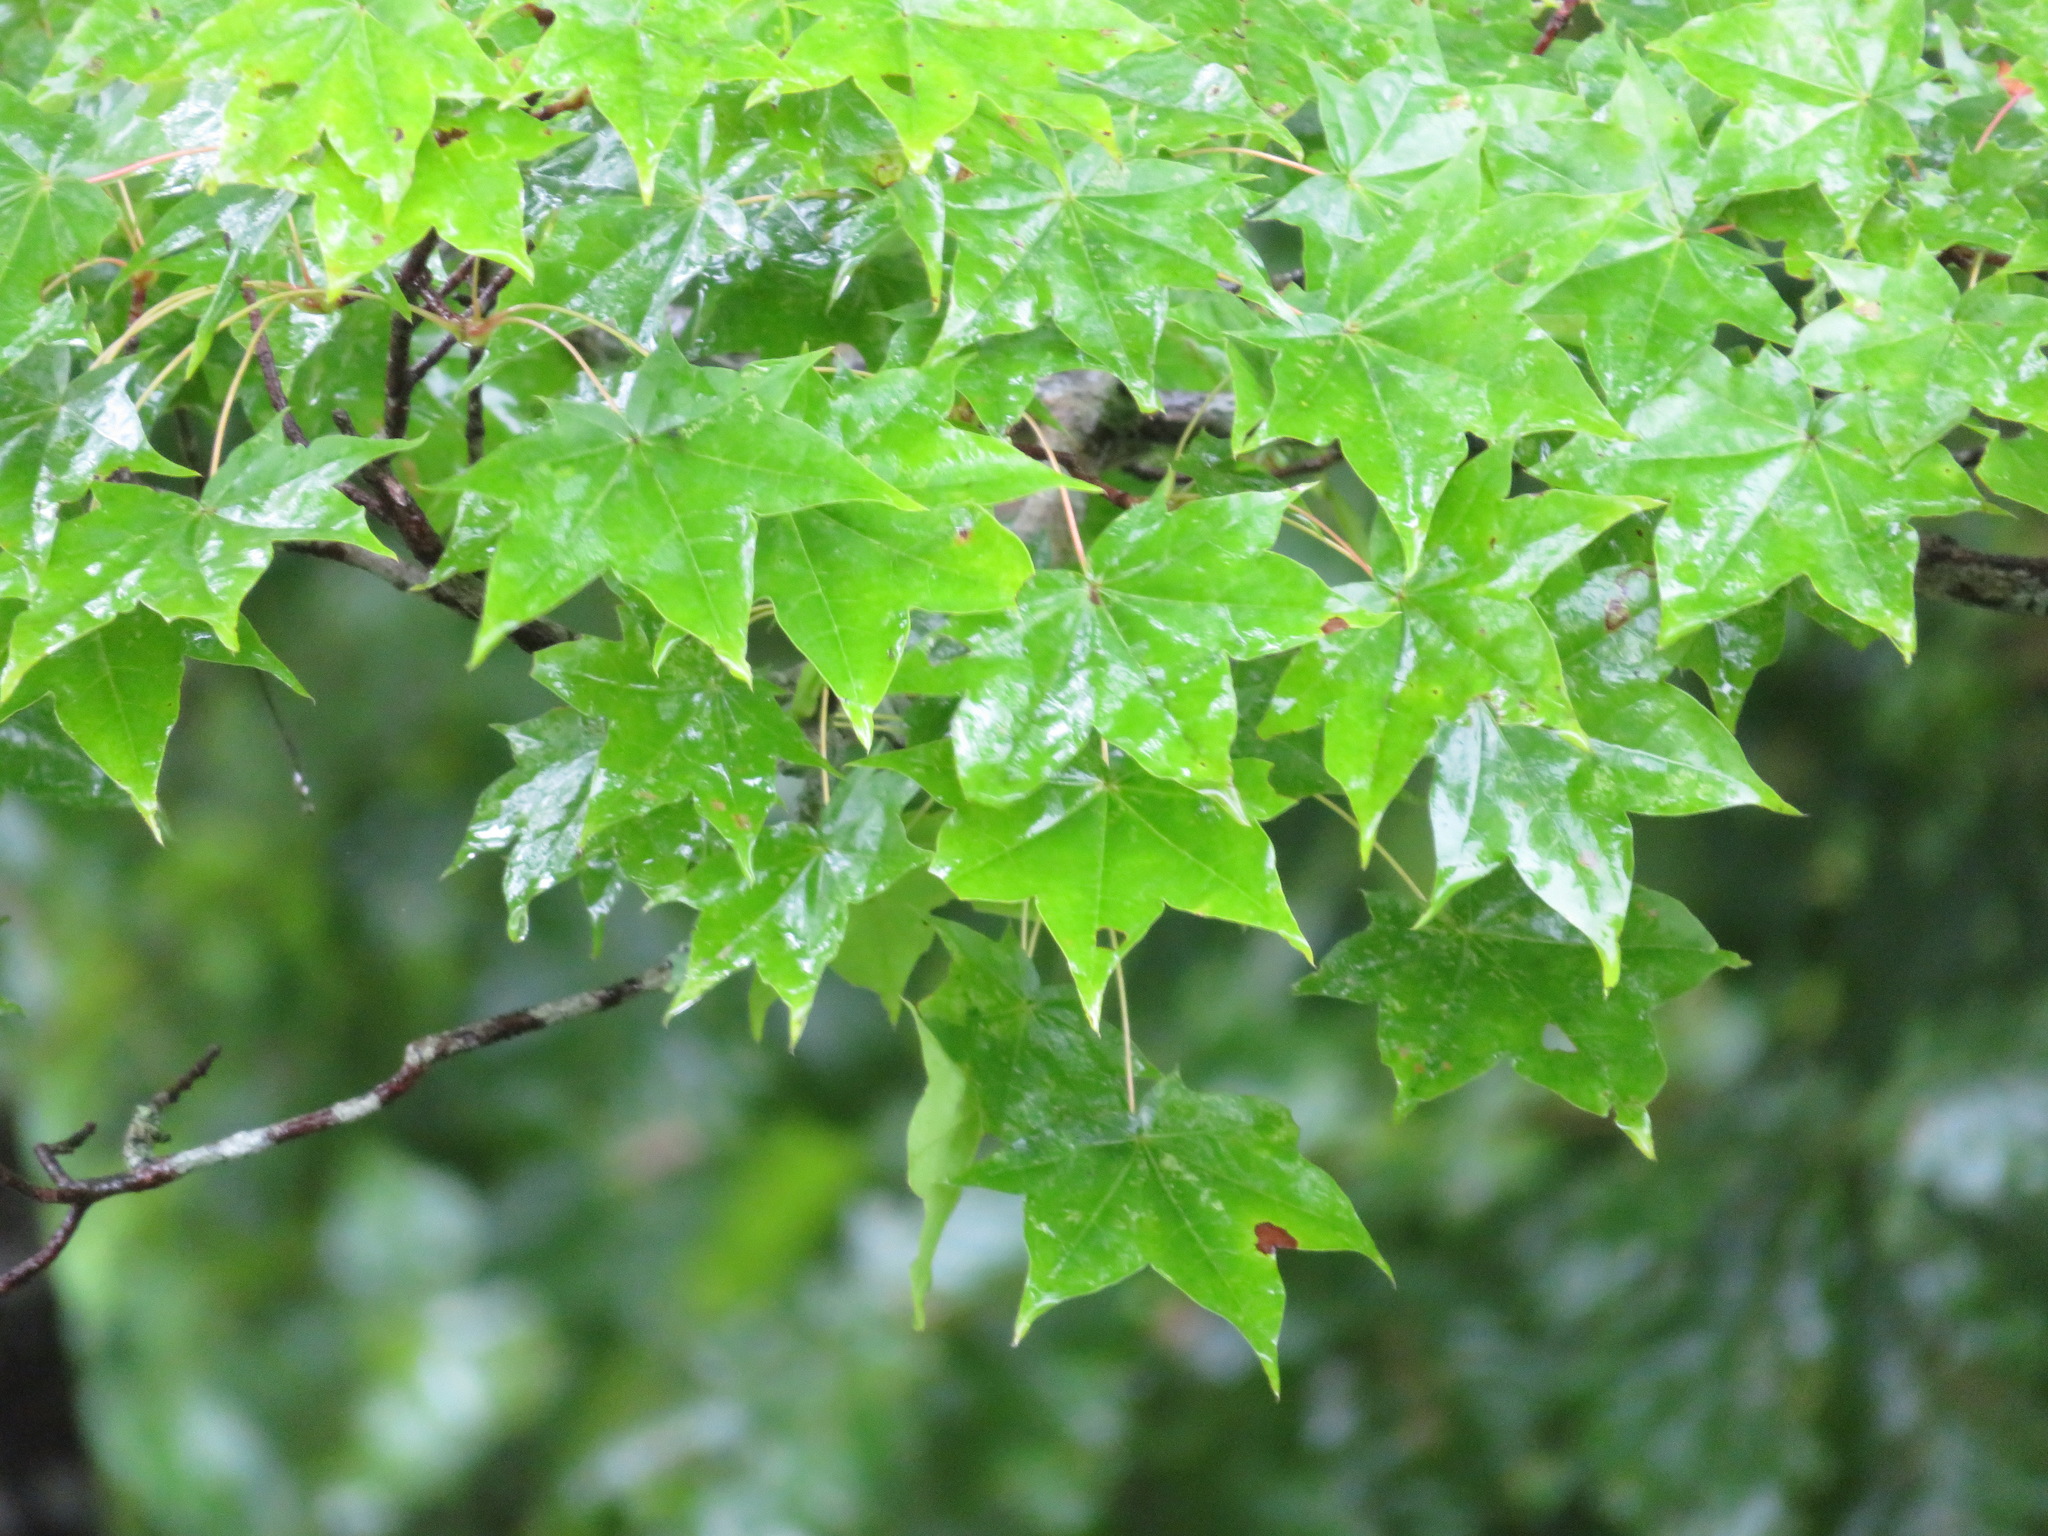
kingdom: Plantae
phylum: Tracheophyta
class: Magnoliopsida
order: Sapindales
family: Sapindaceae
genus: Acer
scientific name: Acer pictum
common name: The painted maple
